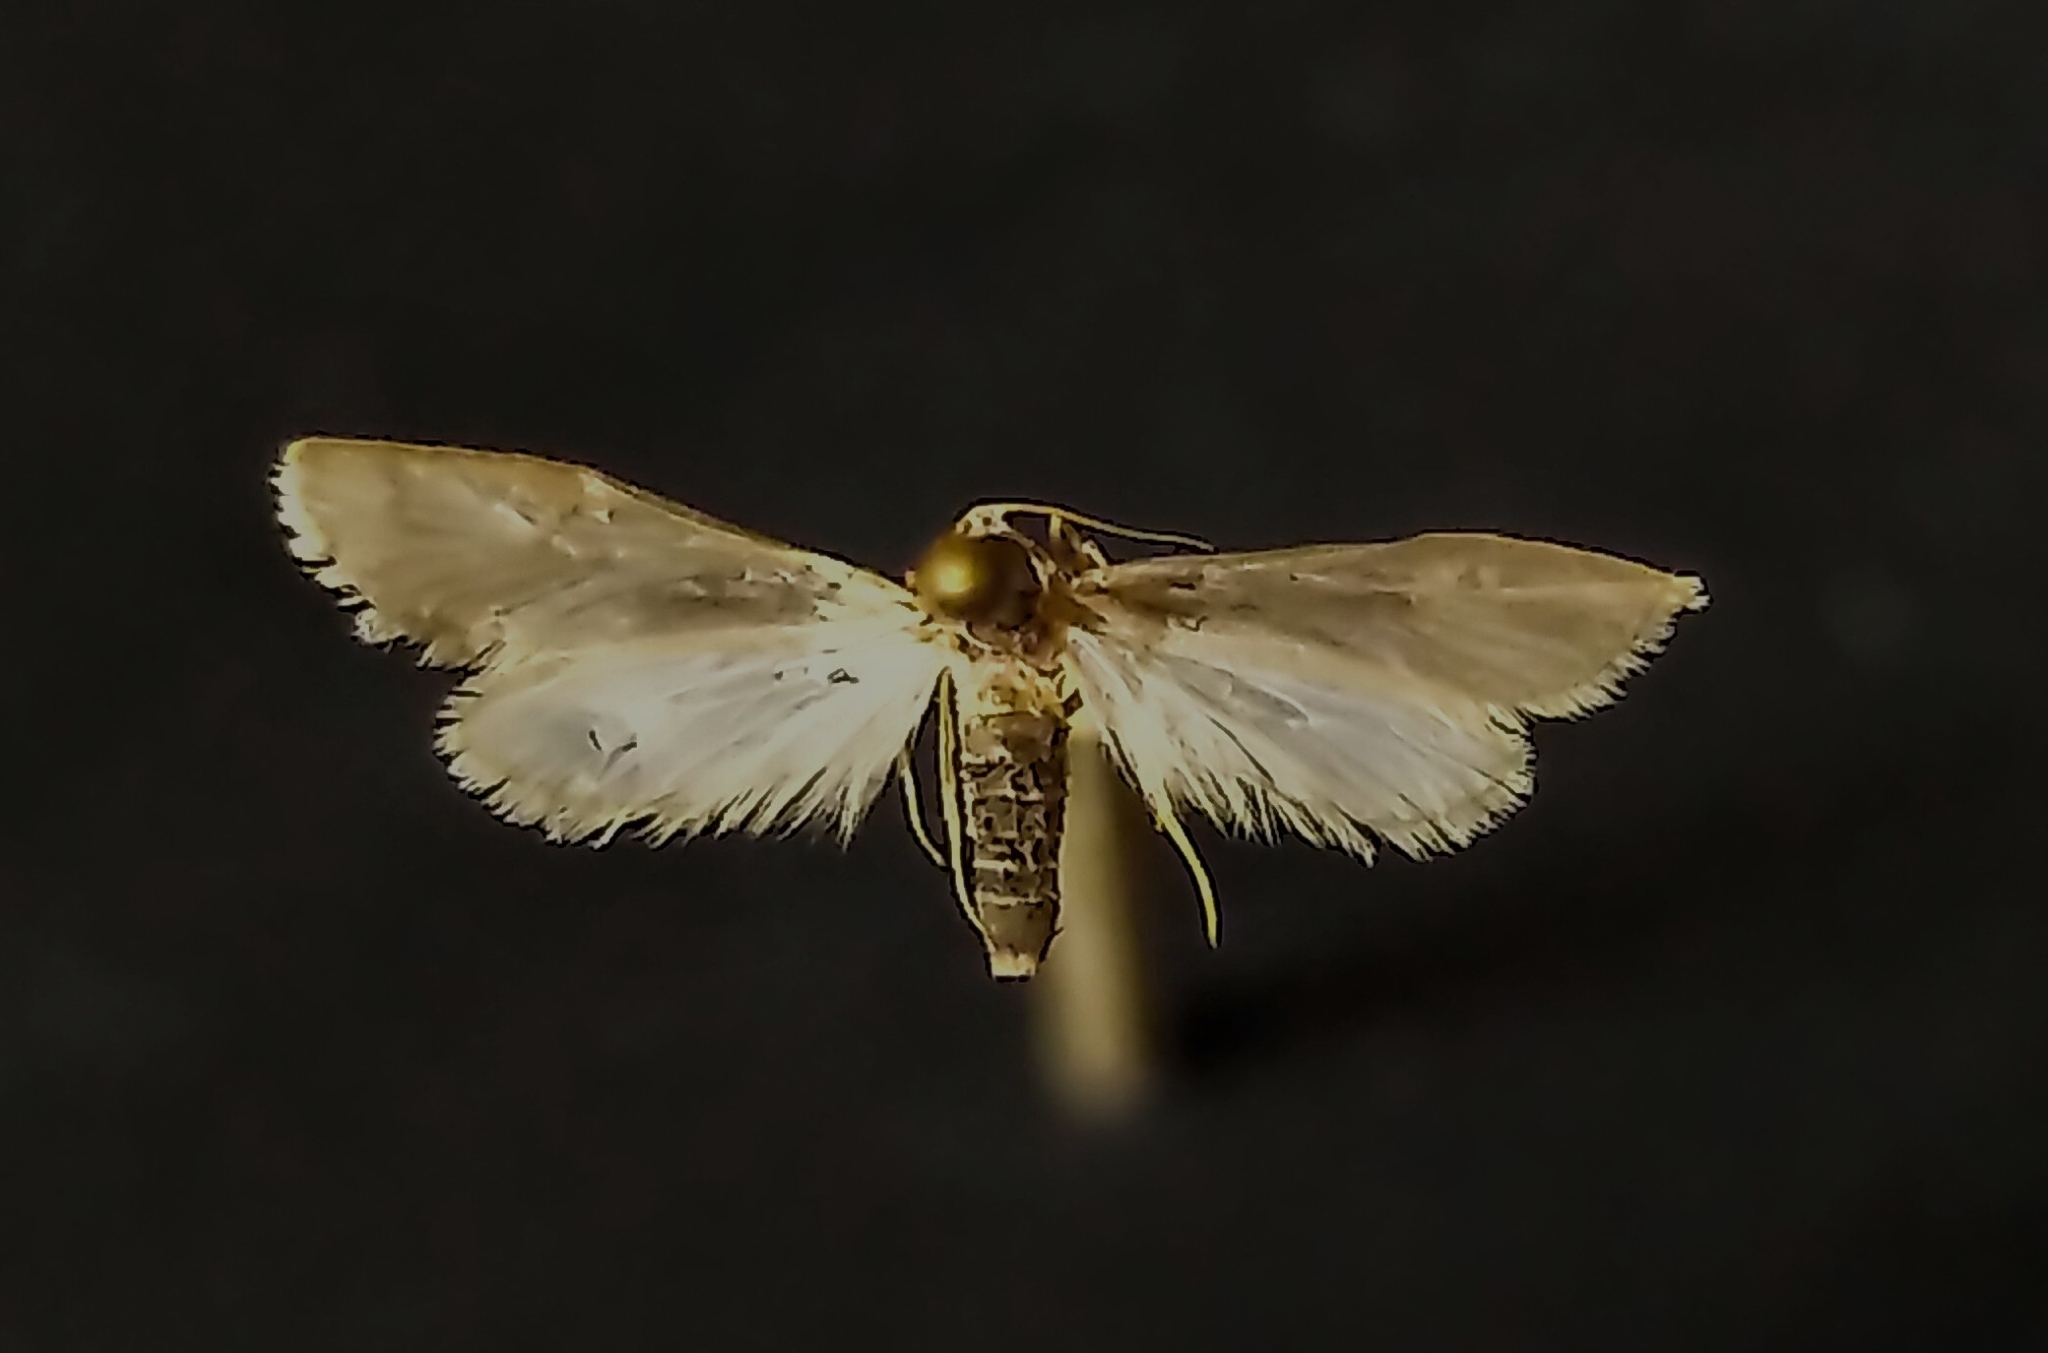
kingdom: Animalia
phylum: Arthropoda
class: Insecta
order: Lepidoptera
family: Crambidae
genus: Acentria
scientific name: Acentria ephemerella
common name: European water moth
